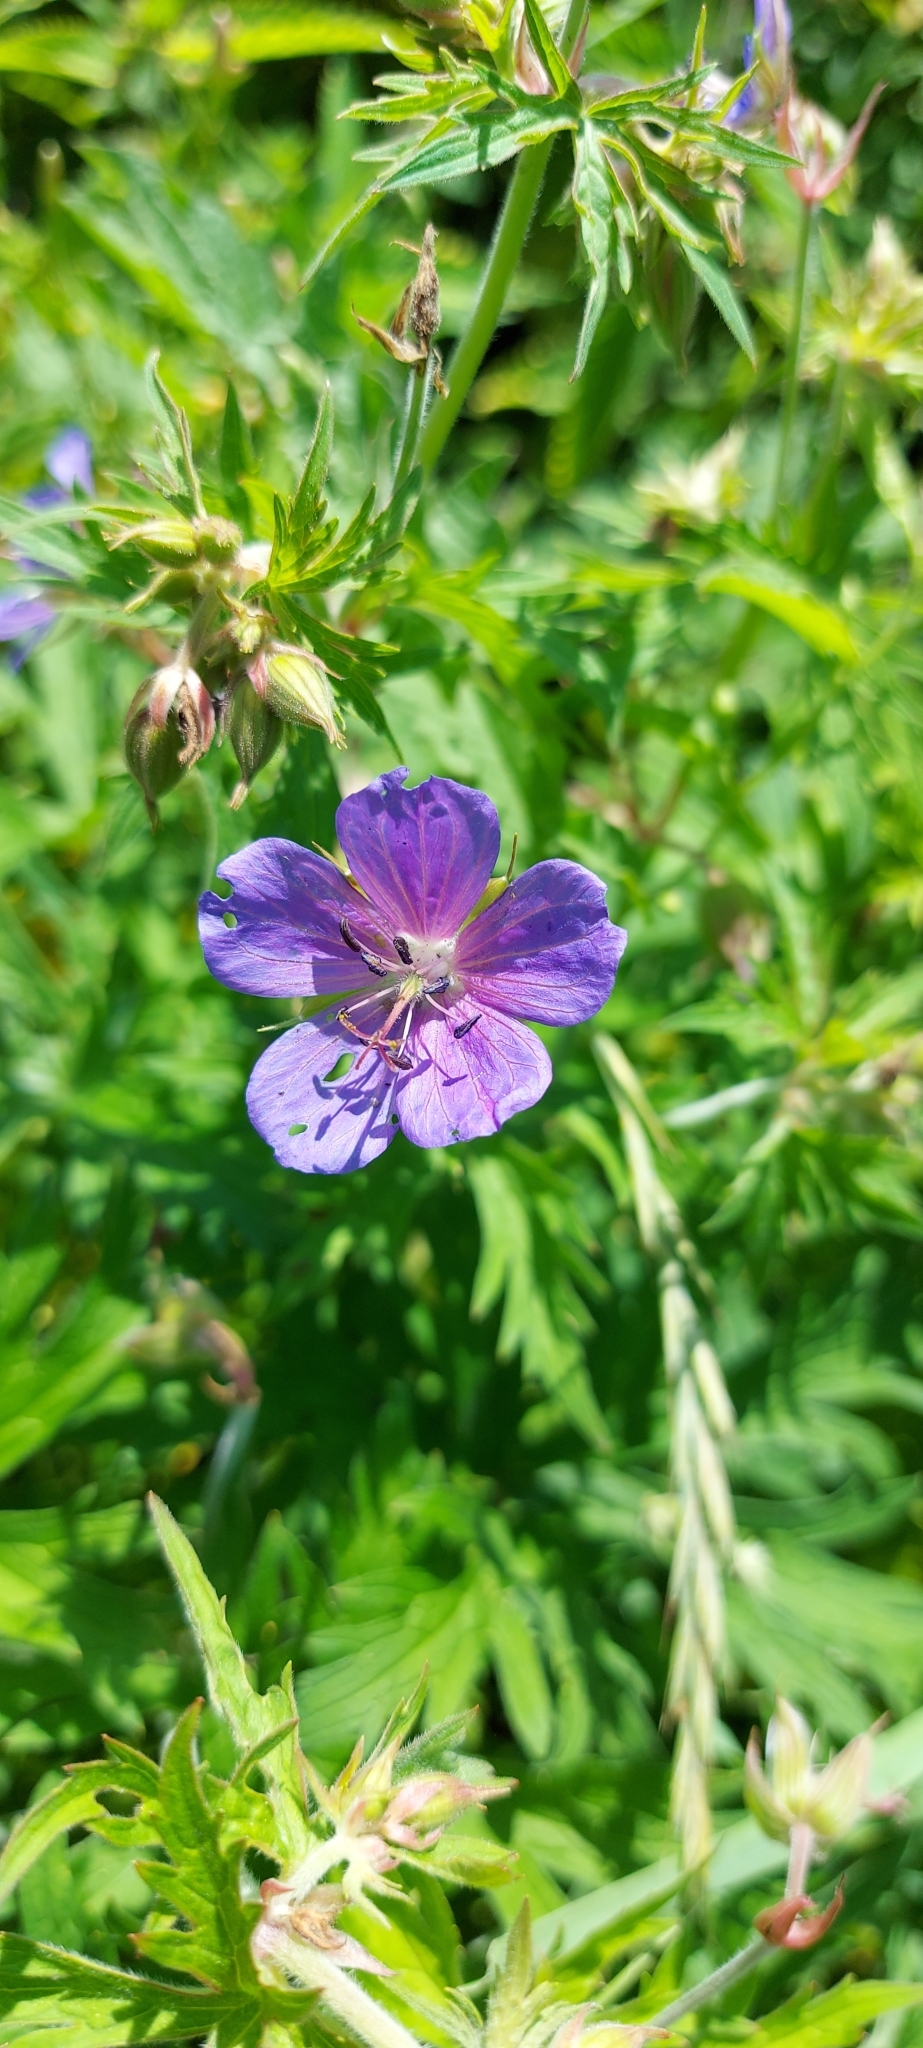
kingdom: Plantae
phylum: Tracheophyta
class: Magnoliopsida
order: Geraniales
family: Geraniaceae
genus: Geranium
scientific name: Geranium pratense
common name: Meadow crane's-bill
